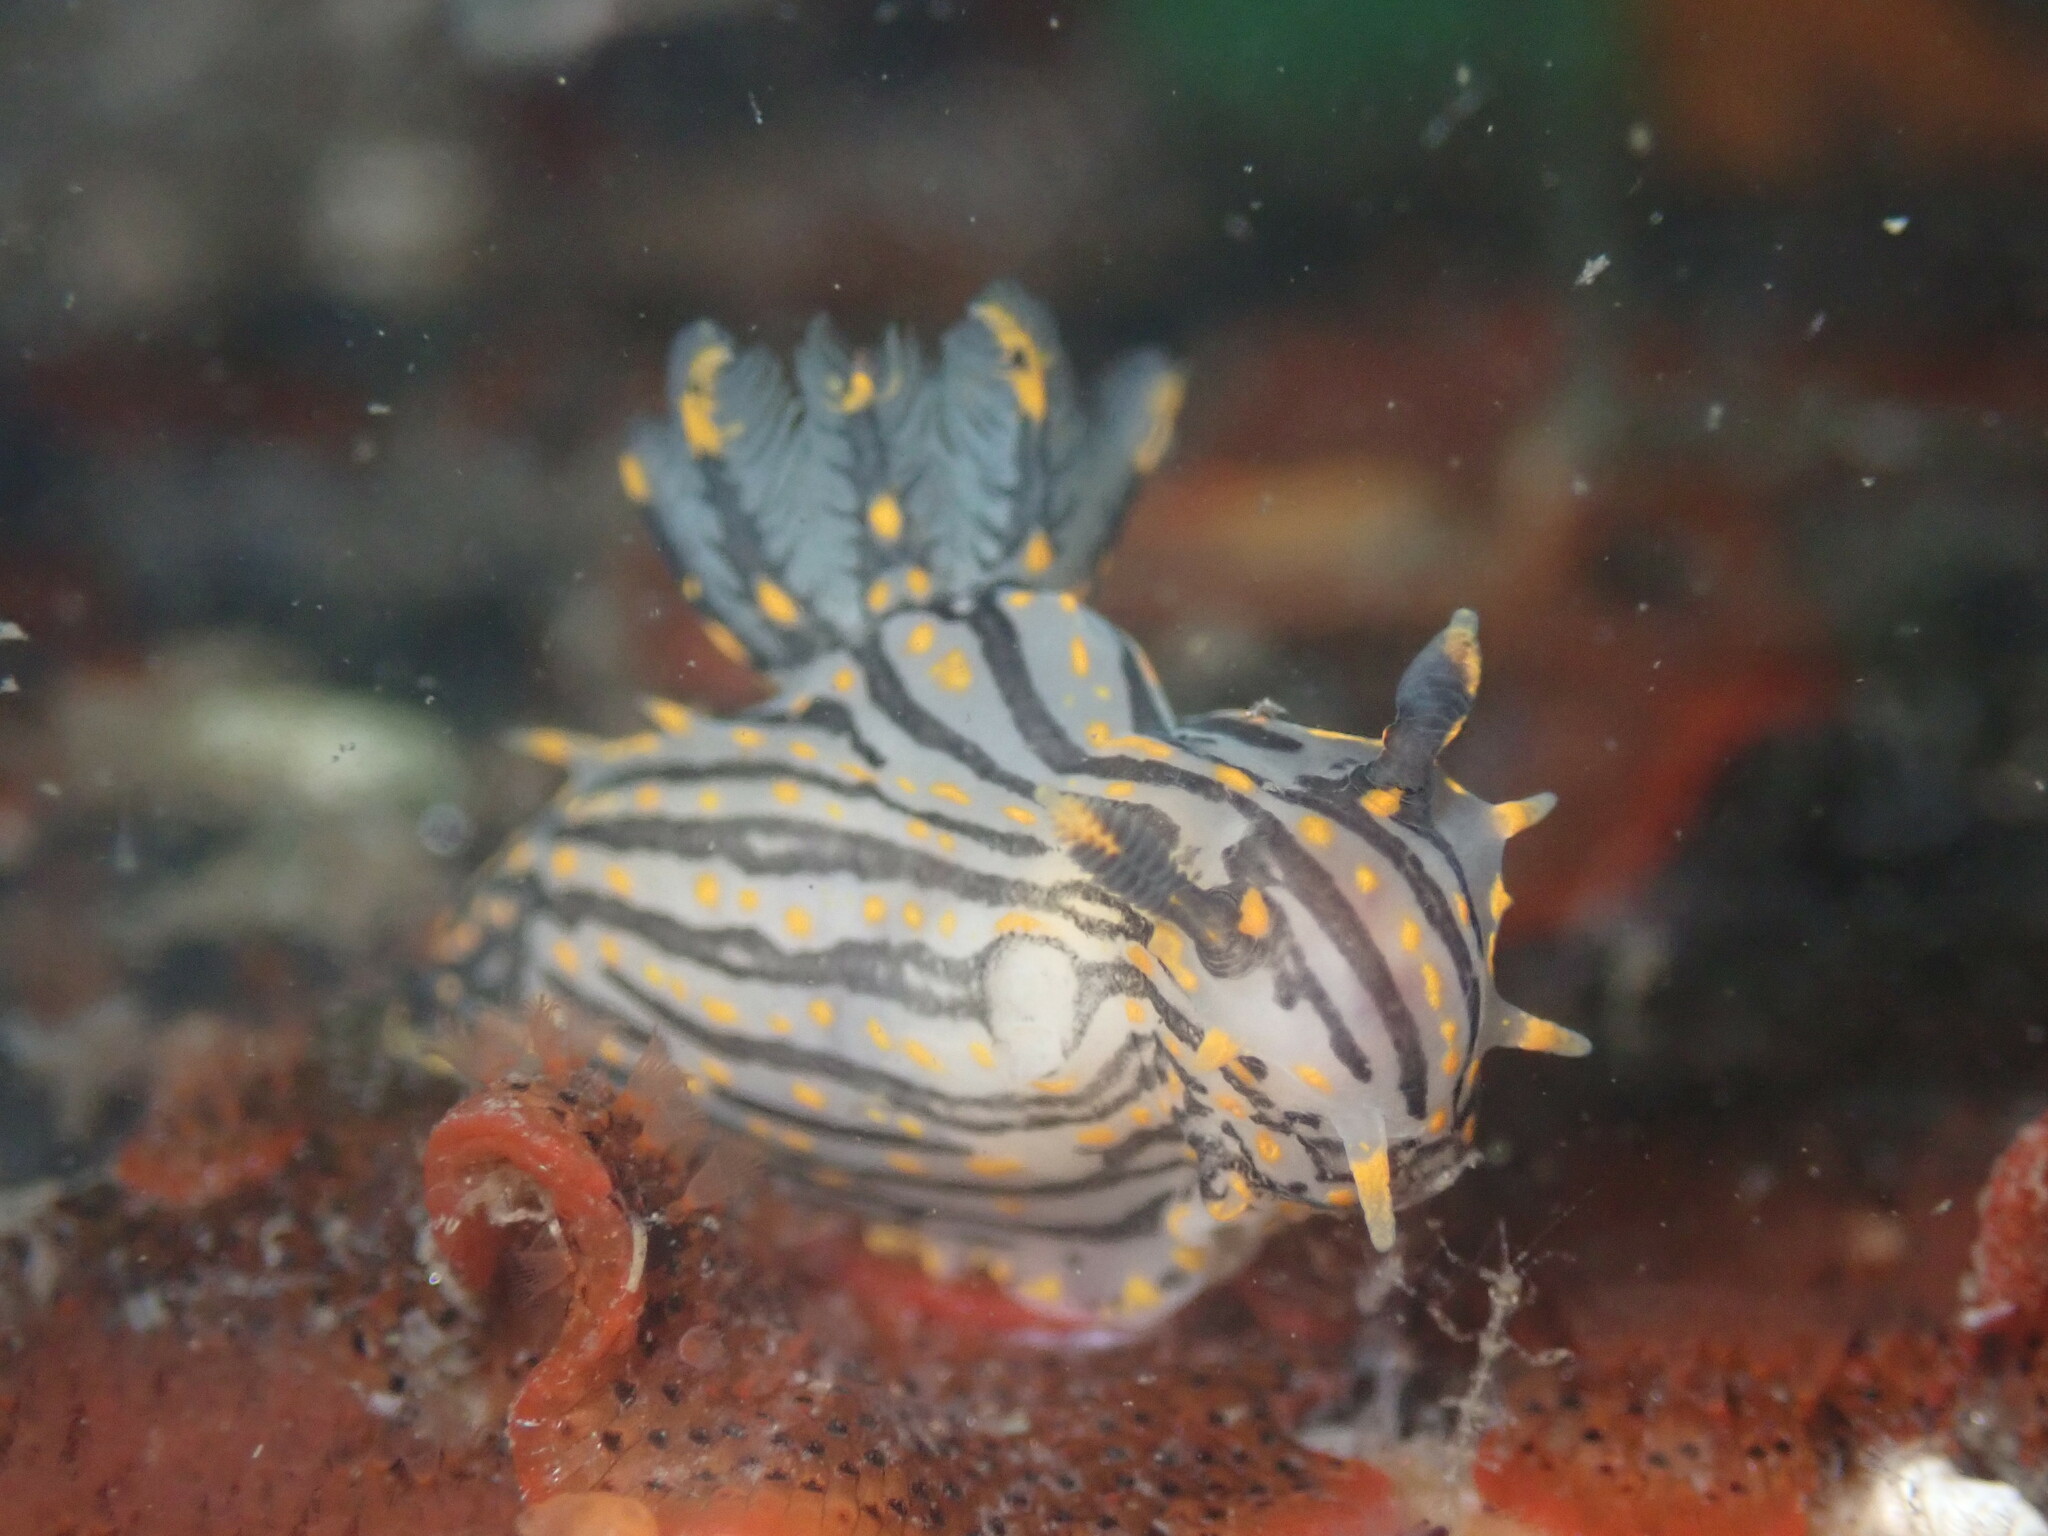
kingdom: Animalia
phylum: Mollusca
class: Gastropoda
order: Nudibranchia
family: Polyceridae
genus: Polycera
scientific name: Polycera atra
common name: Orange-spike polycera
